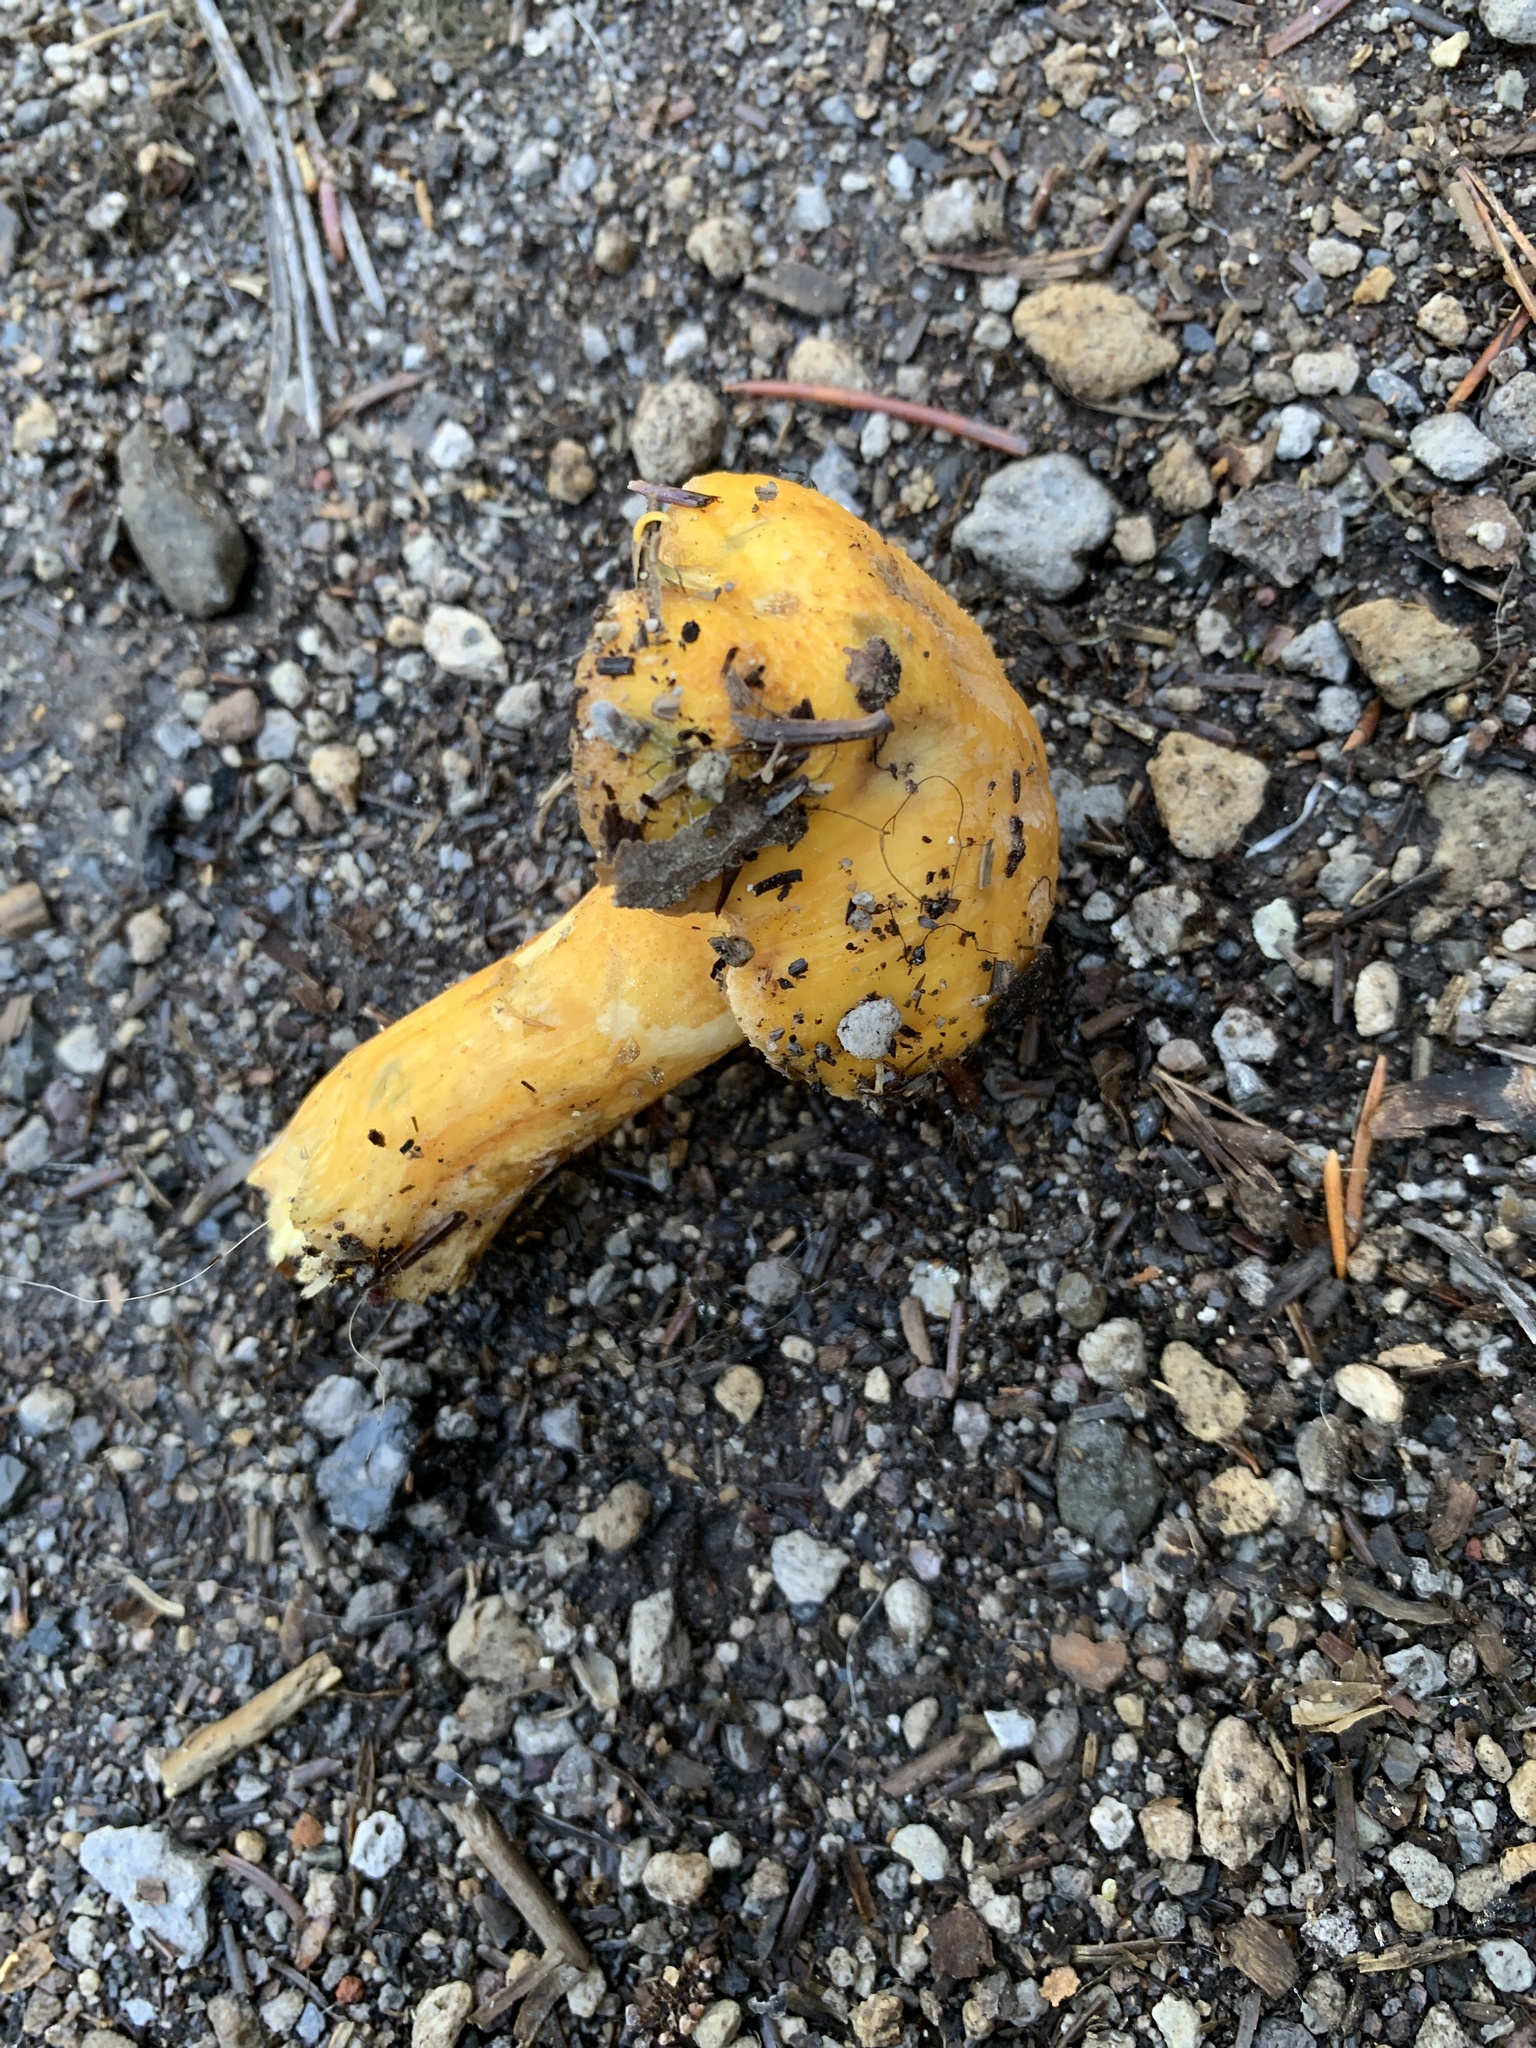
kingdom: Fungi
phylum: Basidiomycota
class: Agaricomycetes
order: Boletales
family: Suillaceae
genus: Suillus
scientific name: Suillus tomentosus
